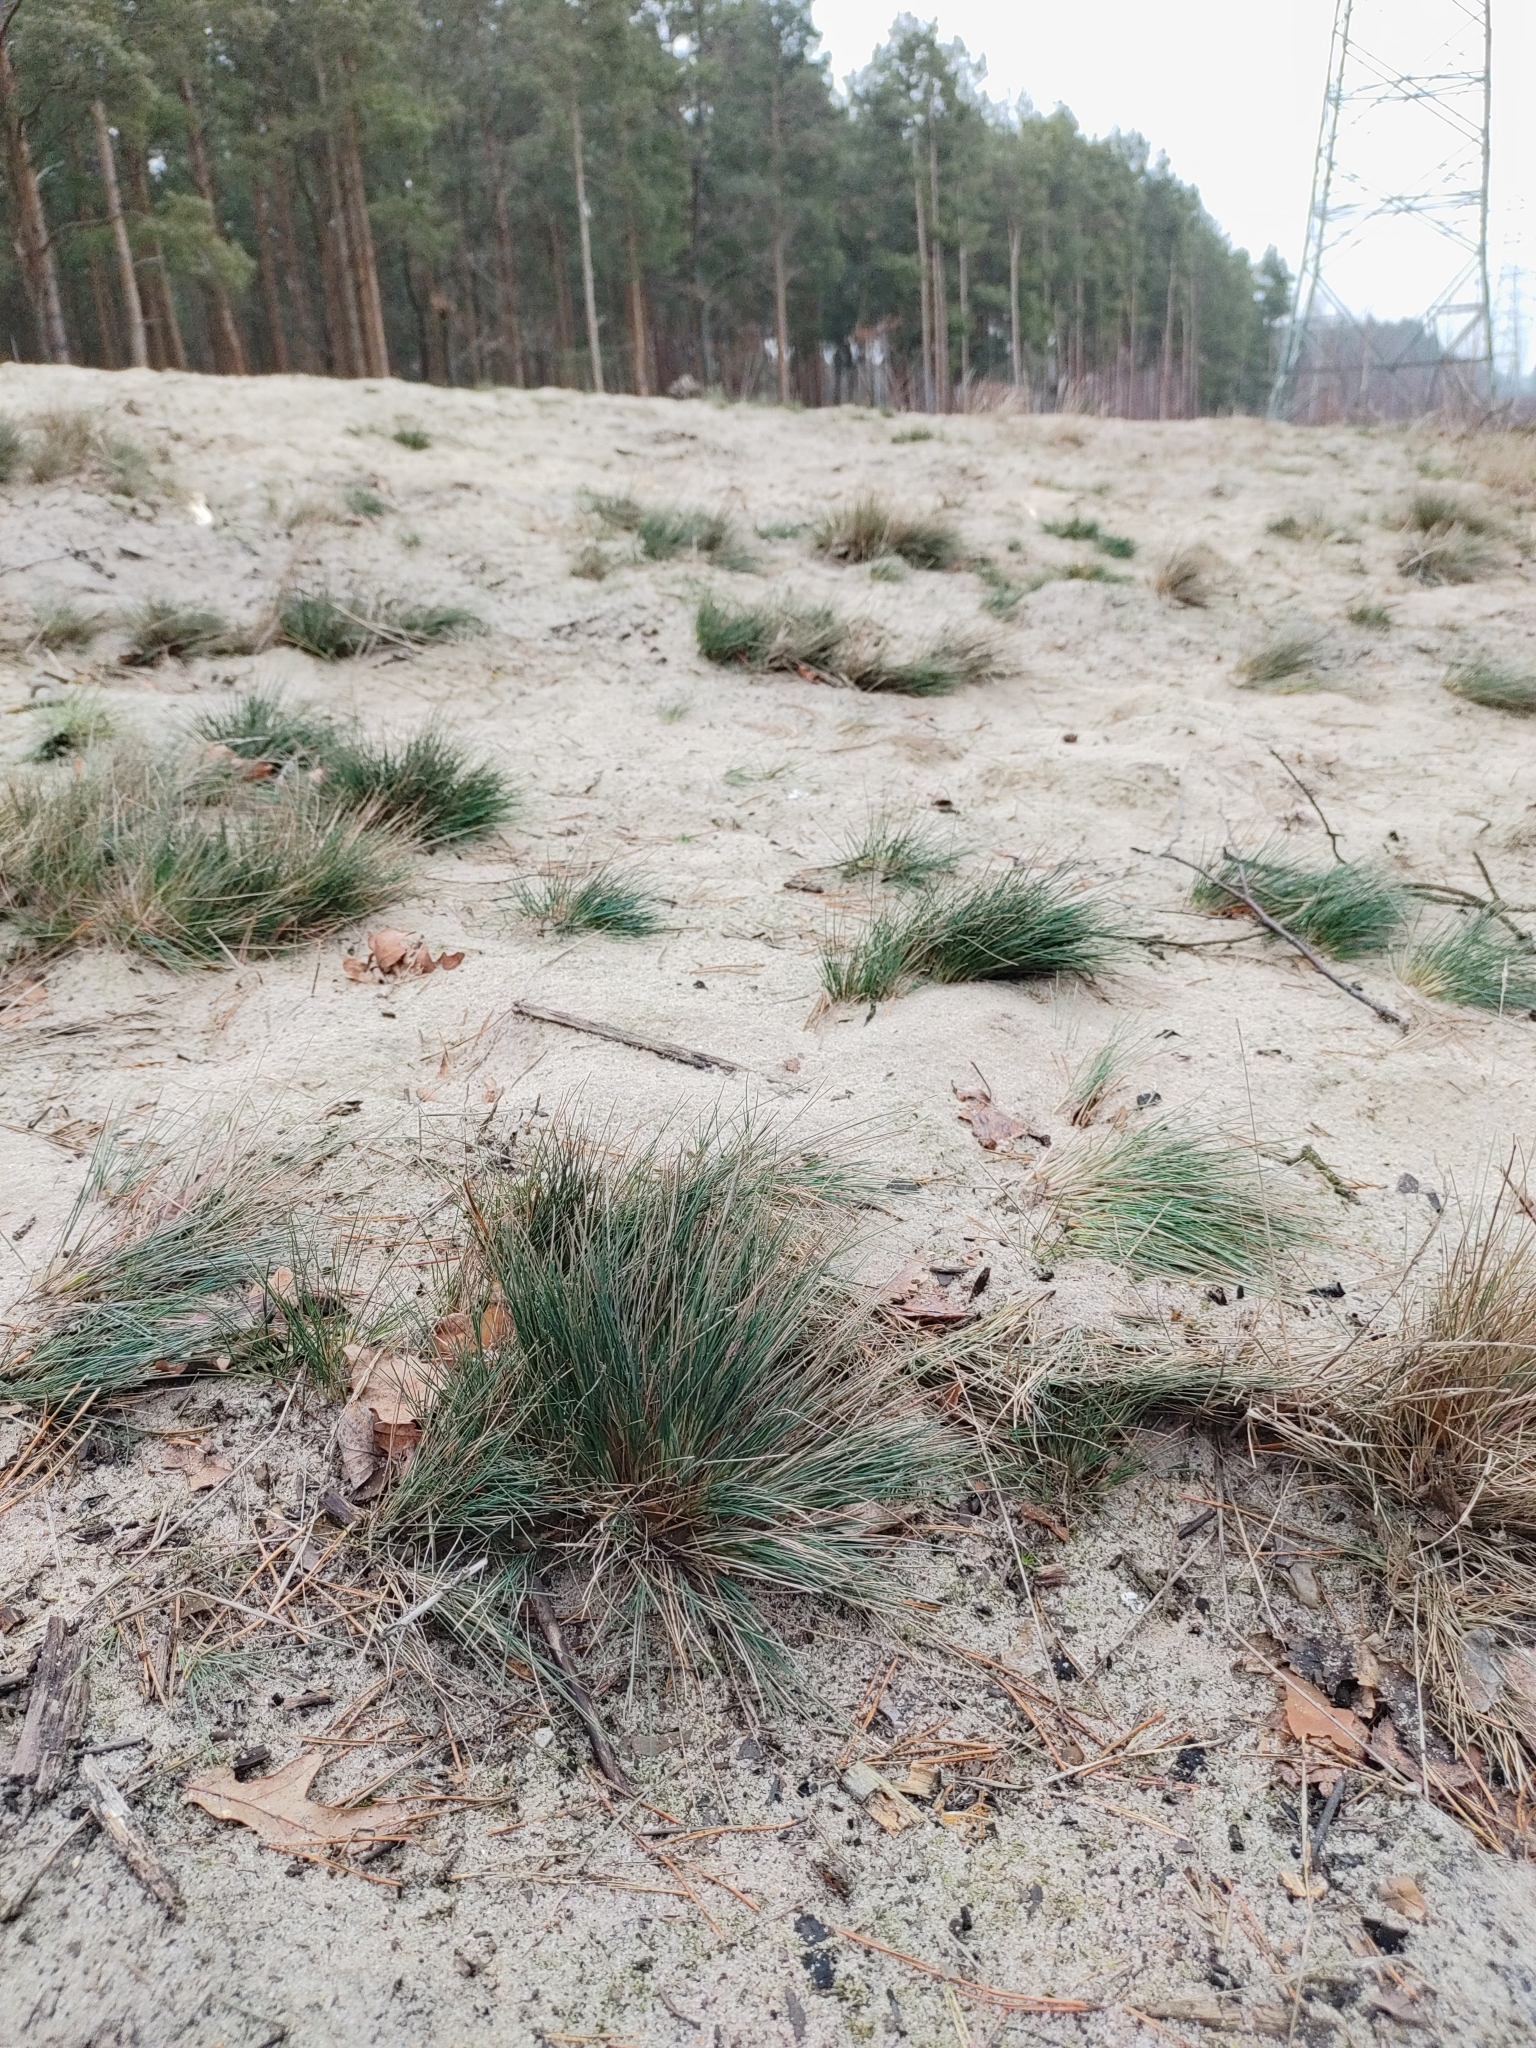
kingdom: Plantae
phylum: Tracheophyta
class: Liliopsida
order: Poales
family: Poaceae
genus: Corynephorus
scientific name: Corynephorus canescens
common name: Grey hair-grass
